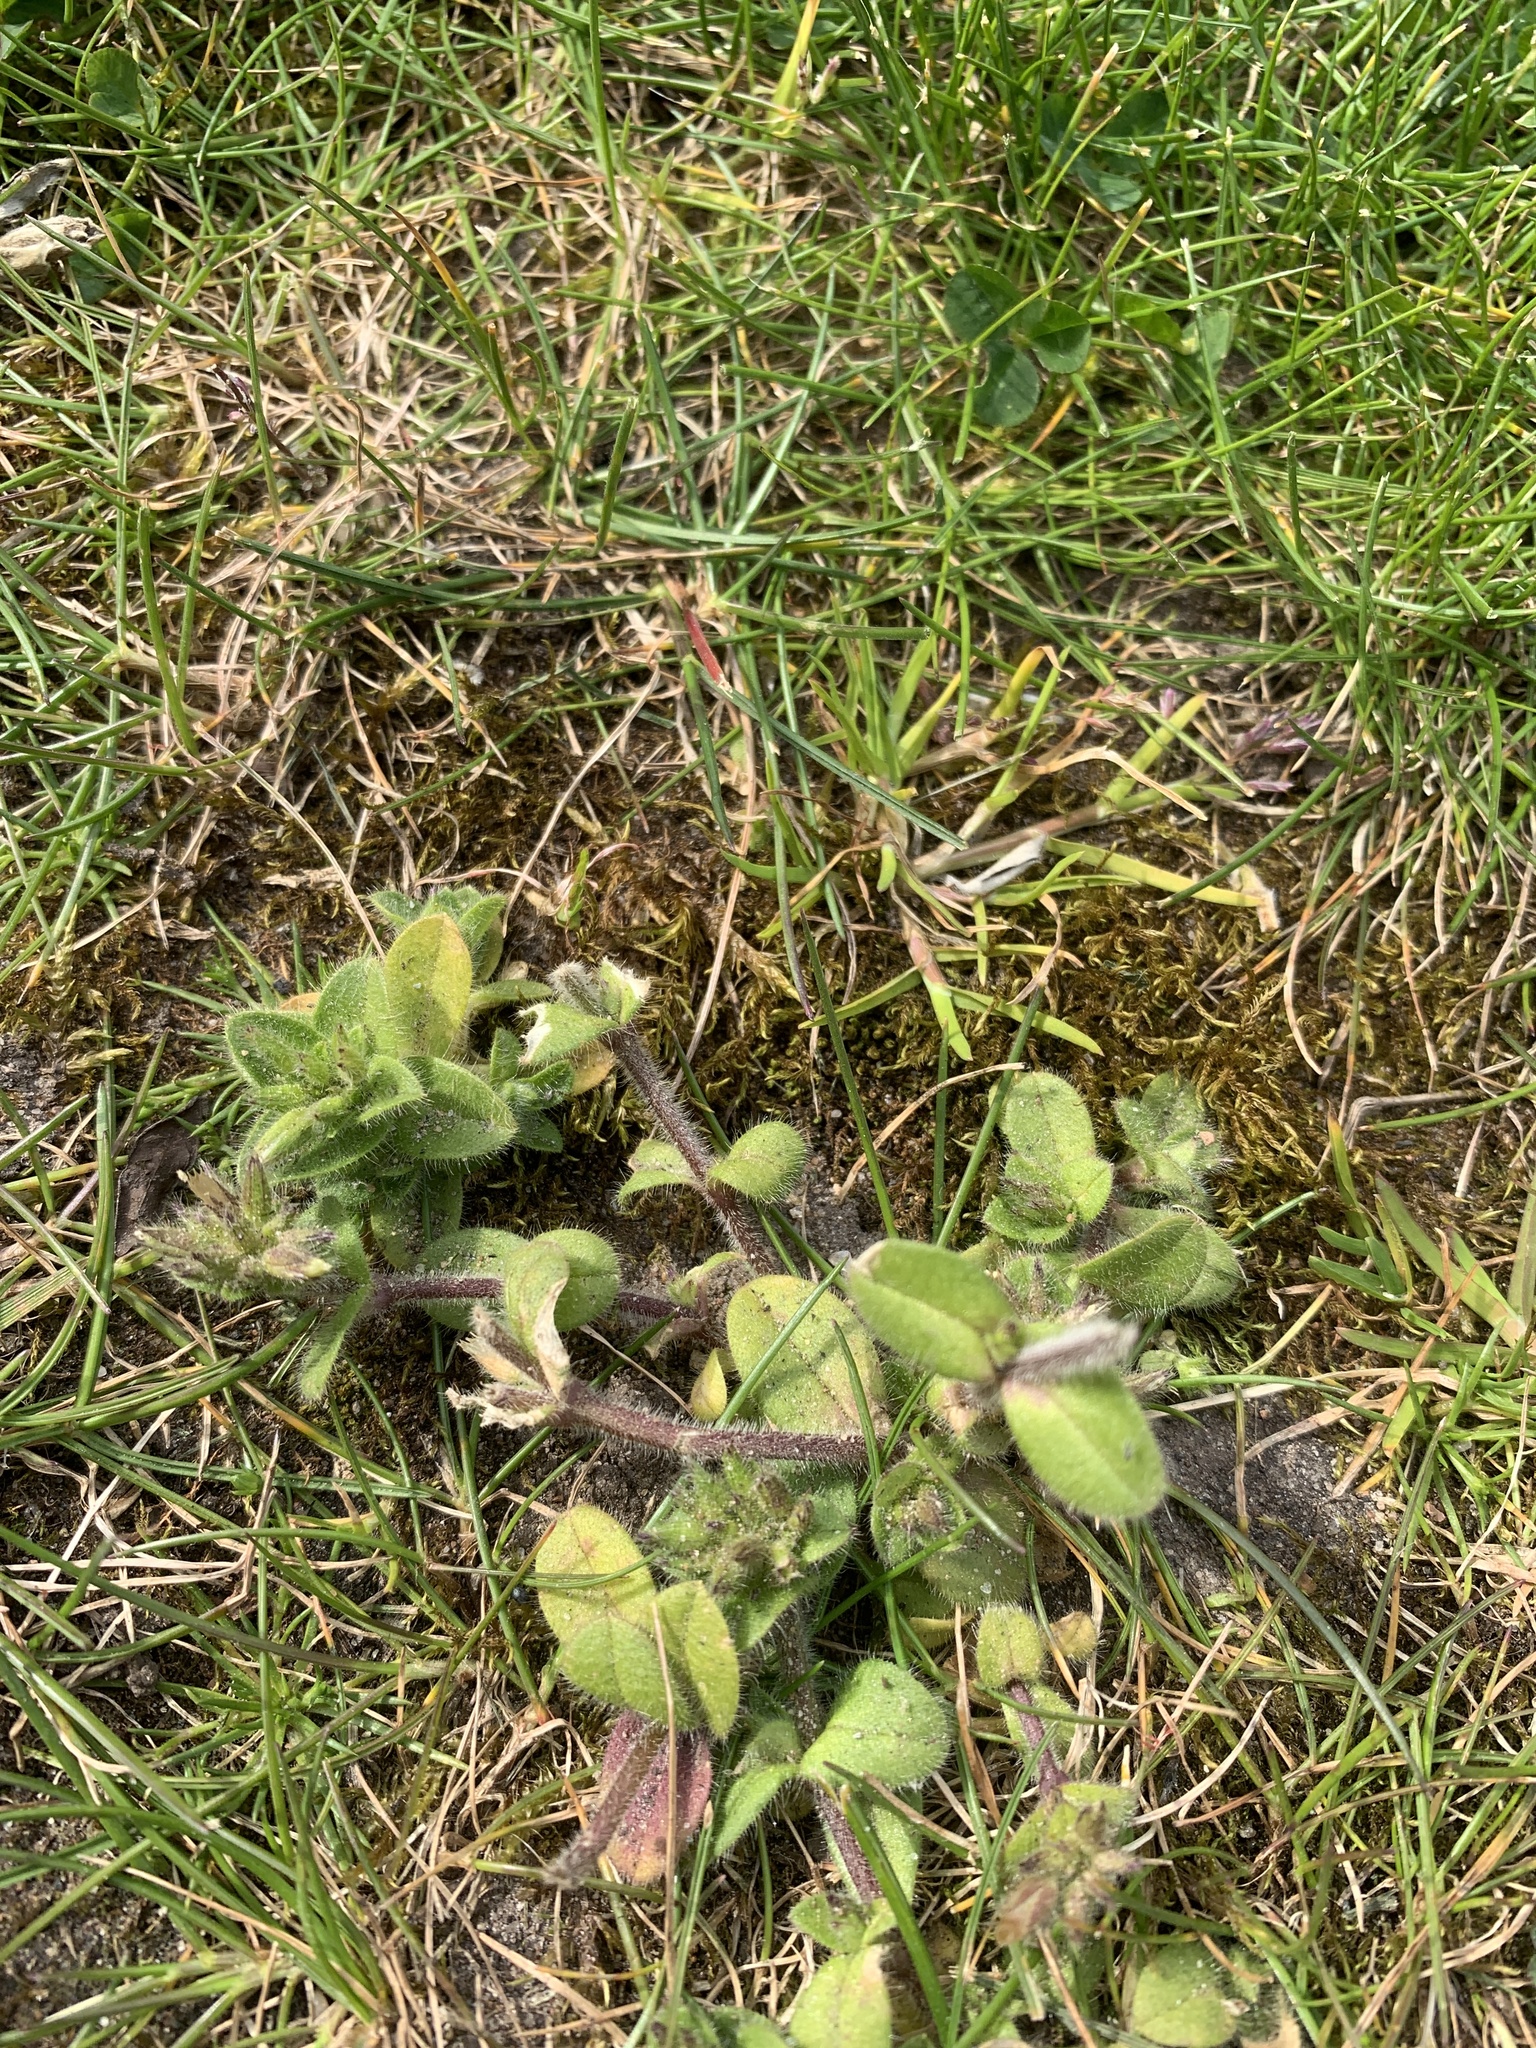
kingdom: Plantae
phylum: Tracheophyta
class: Magnoliopsida
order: Caryophyllales
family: Caryophyllaceae
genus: Cerastium
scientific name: Cerastium glomeratum
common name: Sticky chickweed
